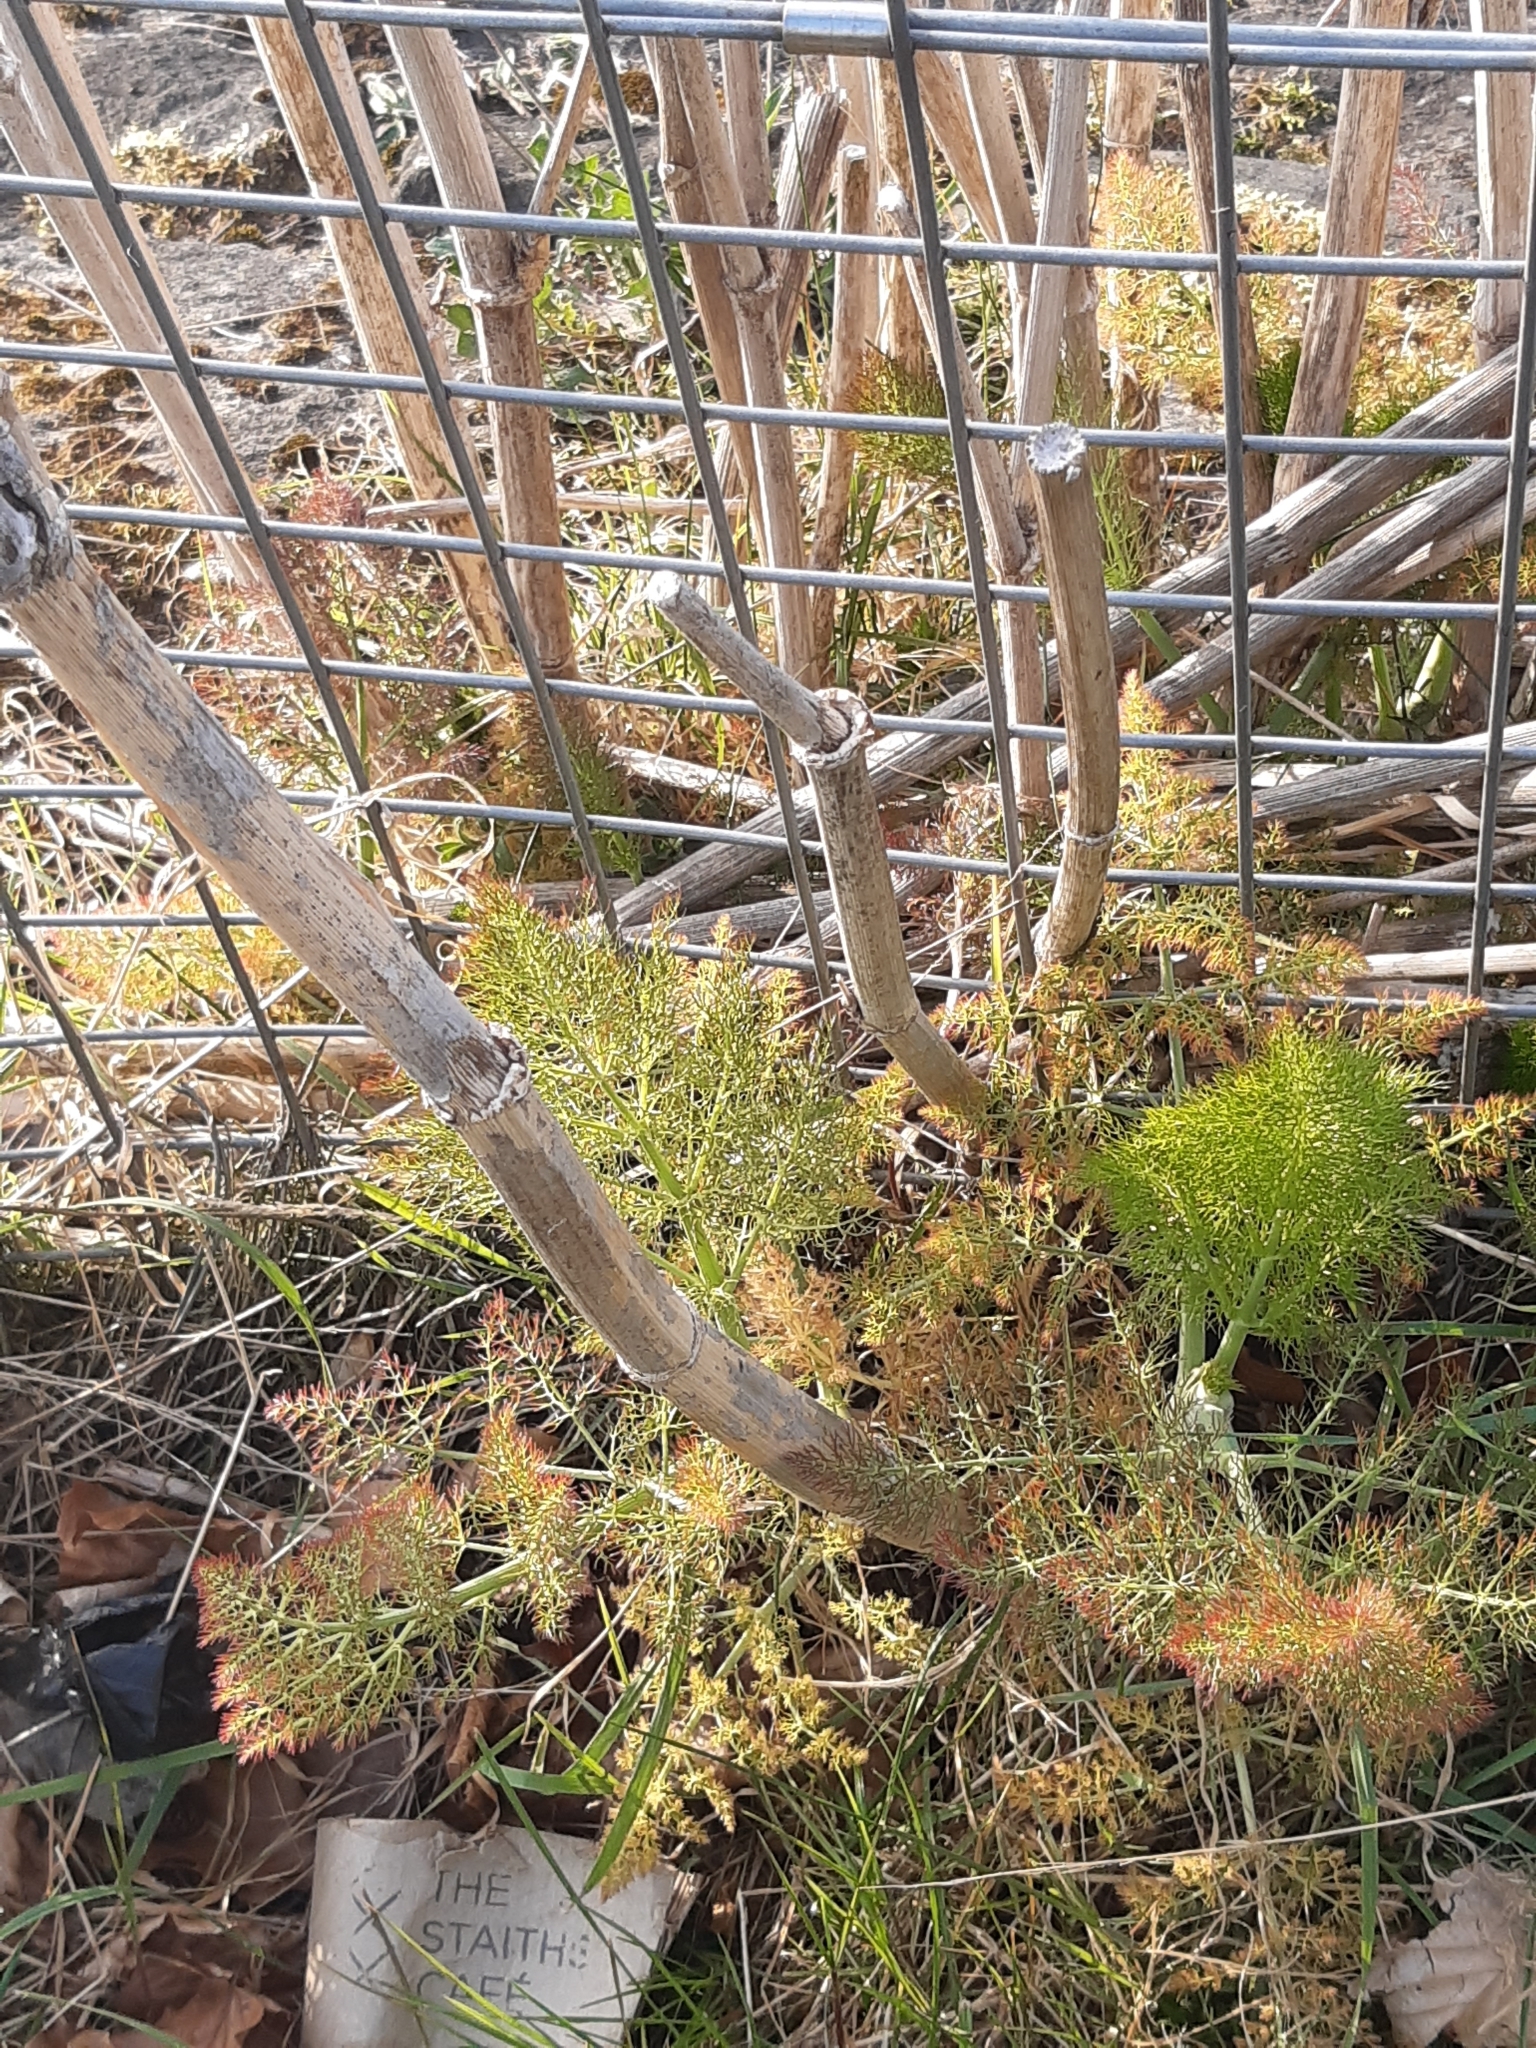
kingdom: Plantae
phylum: Tracheophyta
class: Magnoliopsida
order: Apiales
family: Apiaceae
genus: Foeniculum
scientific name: Foeniculum vulgare
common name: Fennel
